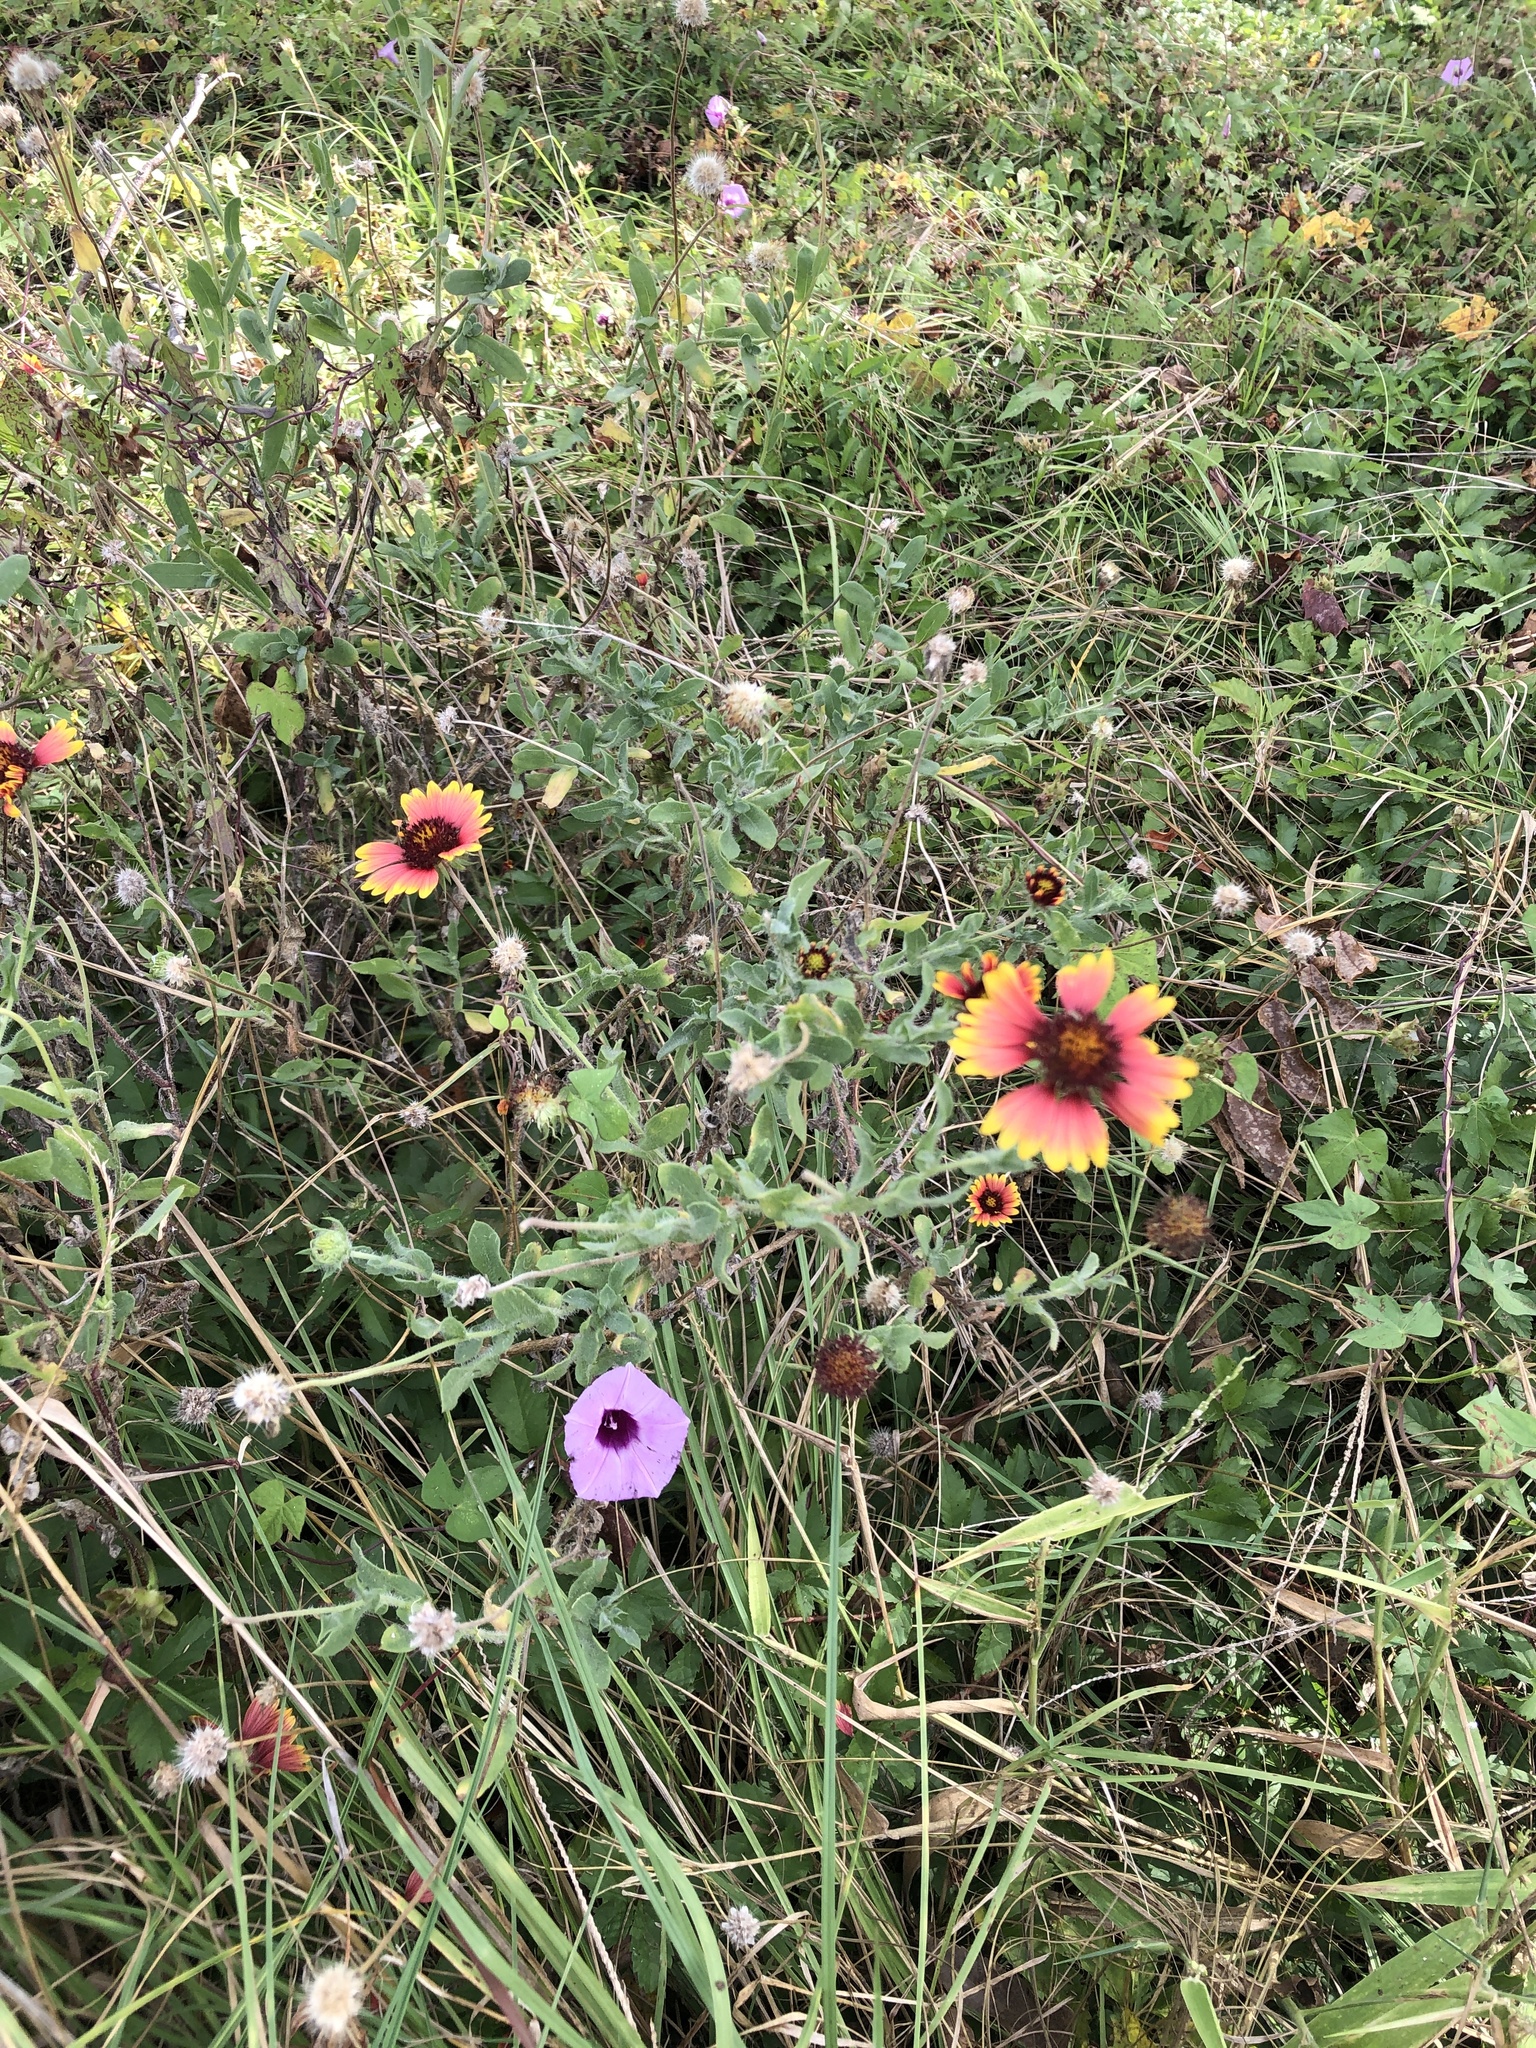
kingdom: Plantae
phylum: Tracheophyta
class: Magnoliopsida
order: Asterales
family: Asteraceae
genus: Gaillardia
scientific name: Gaillardia pulchella
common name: Firewheel
